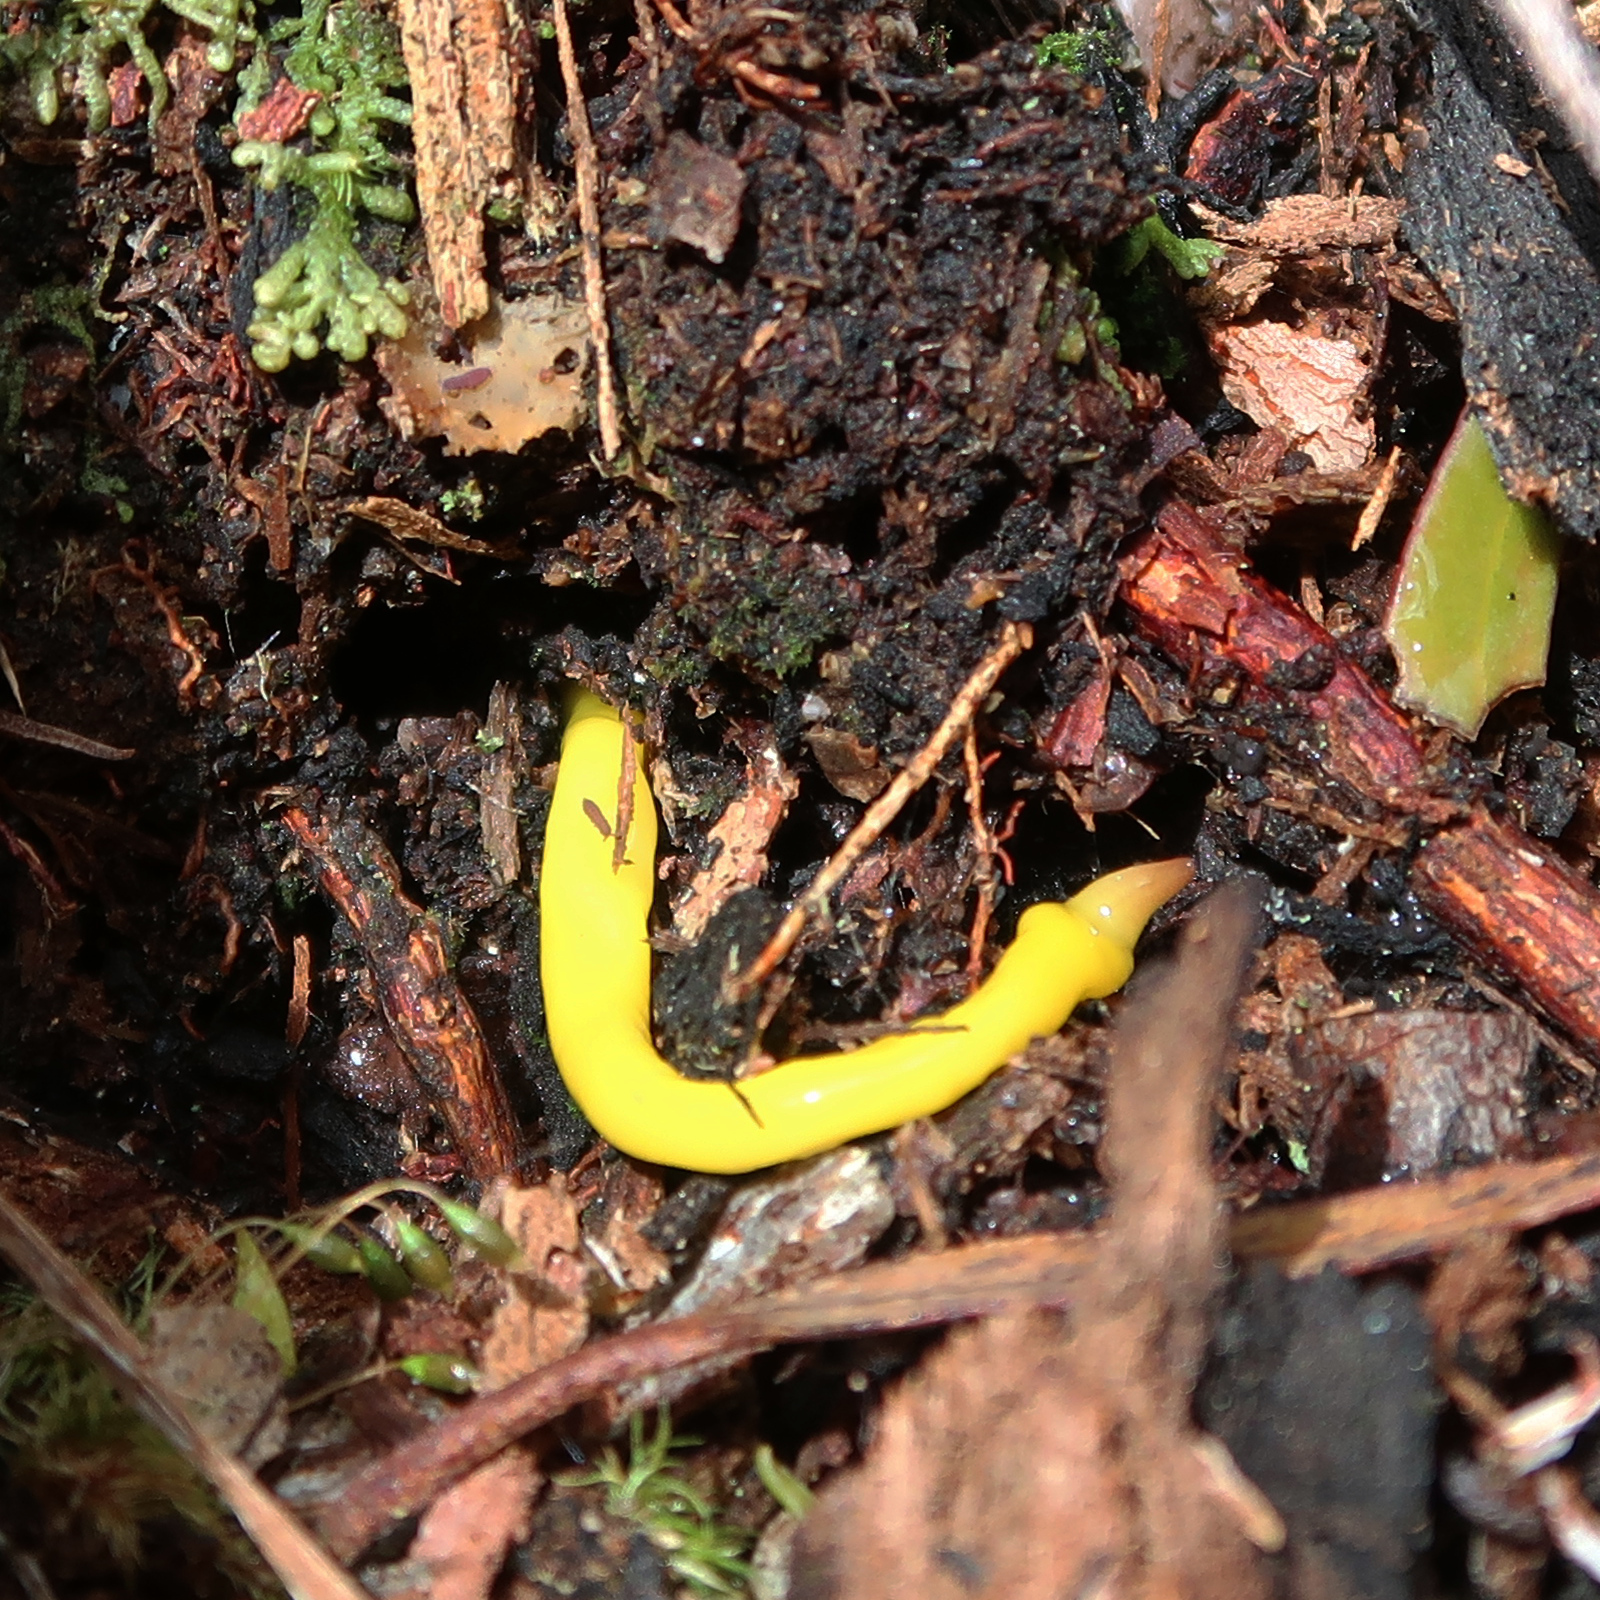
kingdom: Animalia
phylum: Platyhelminthes
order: Tricladida
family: Geoplanidae
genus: Fletchamia
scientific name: Fletchamia sugdeni
